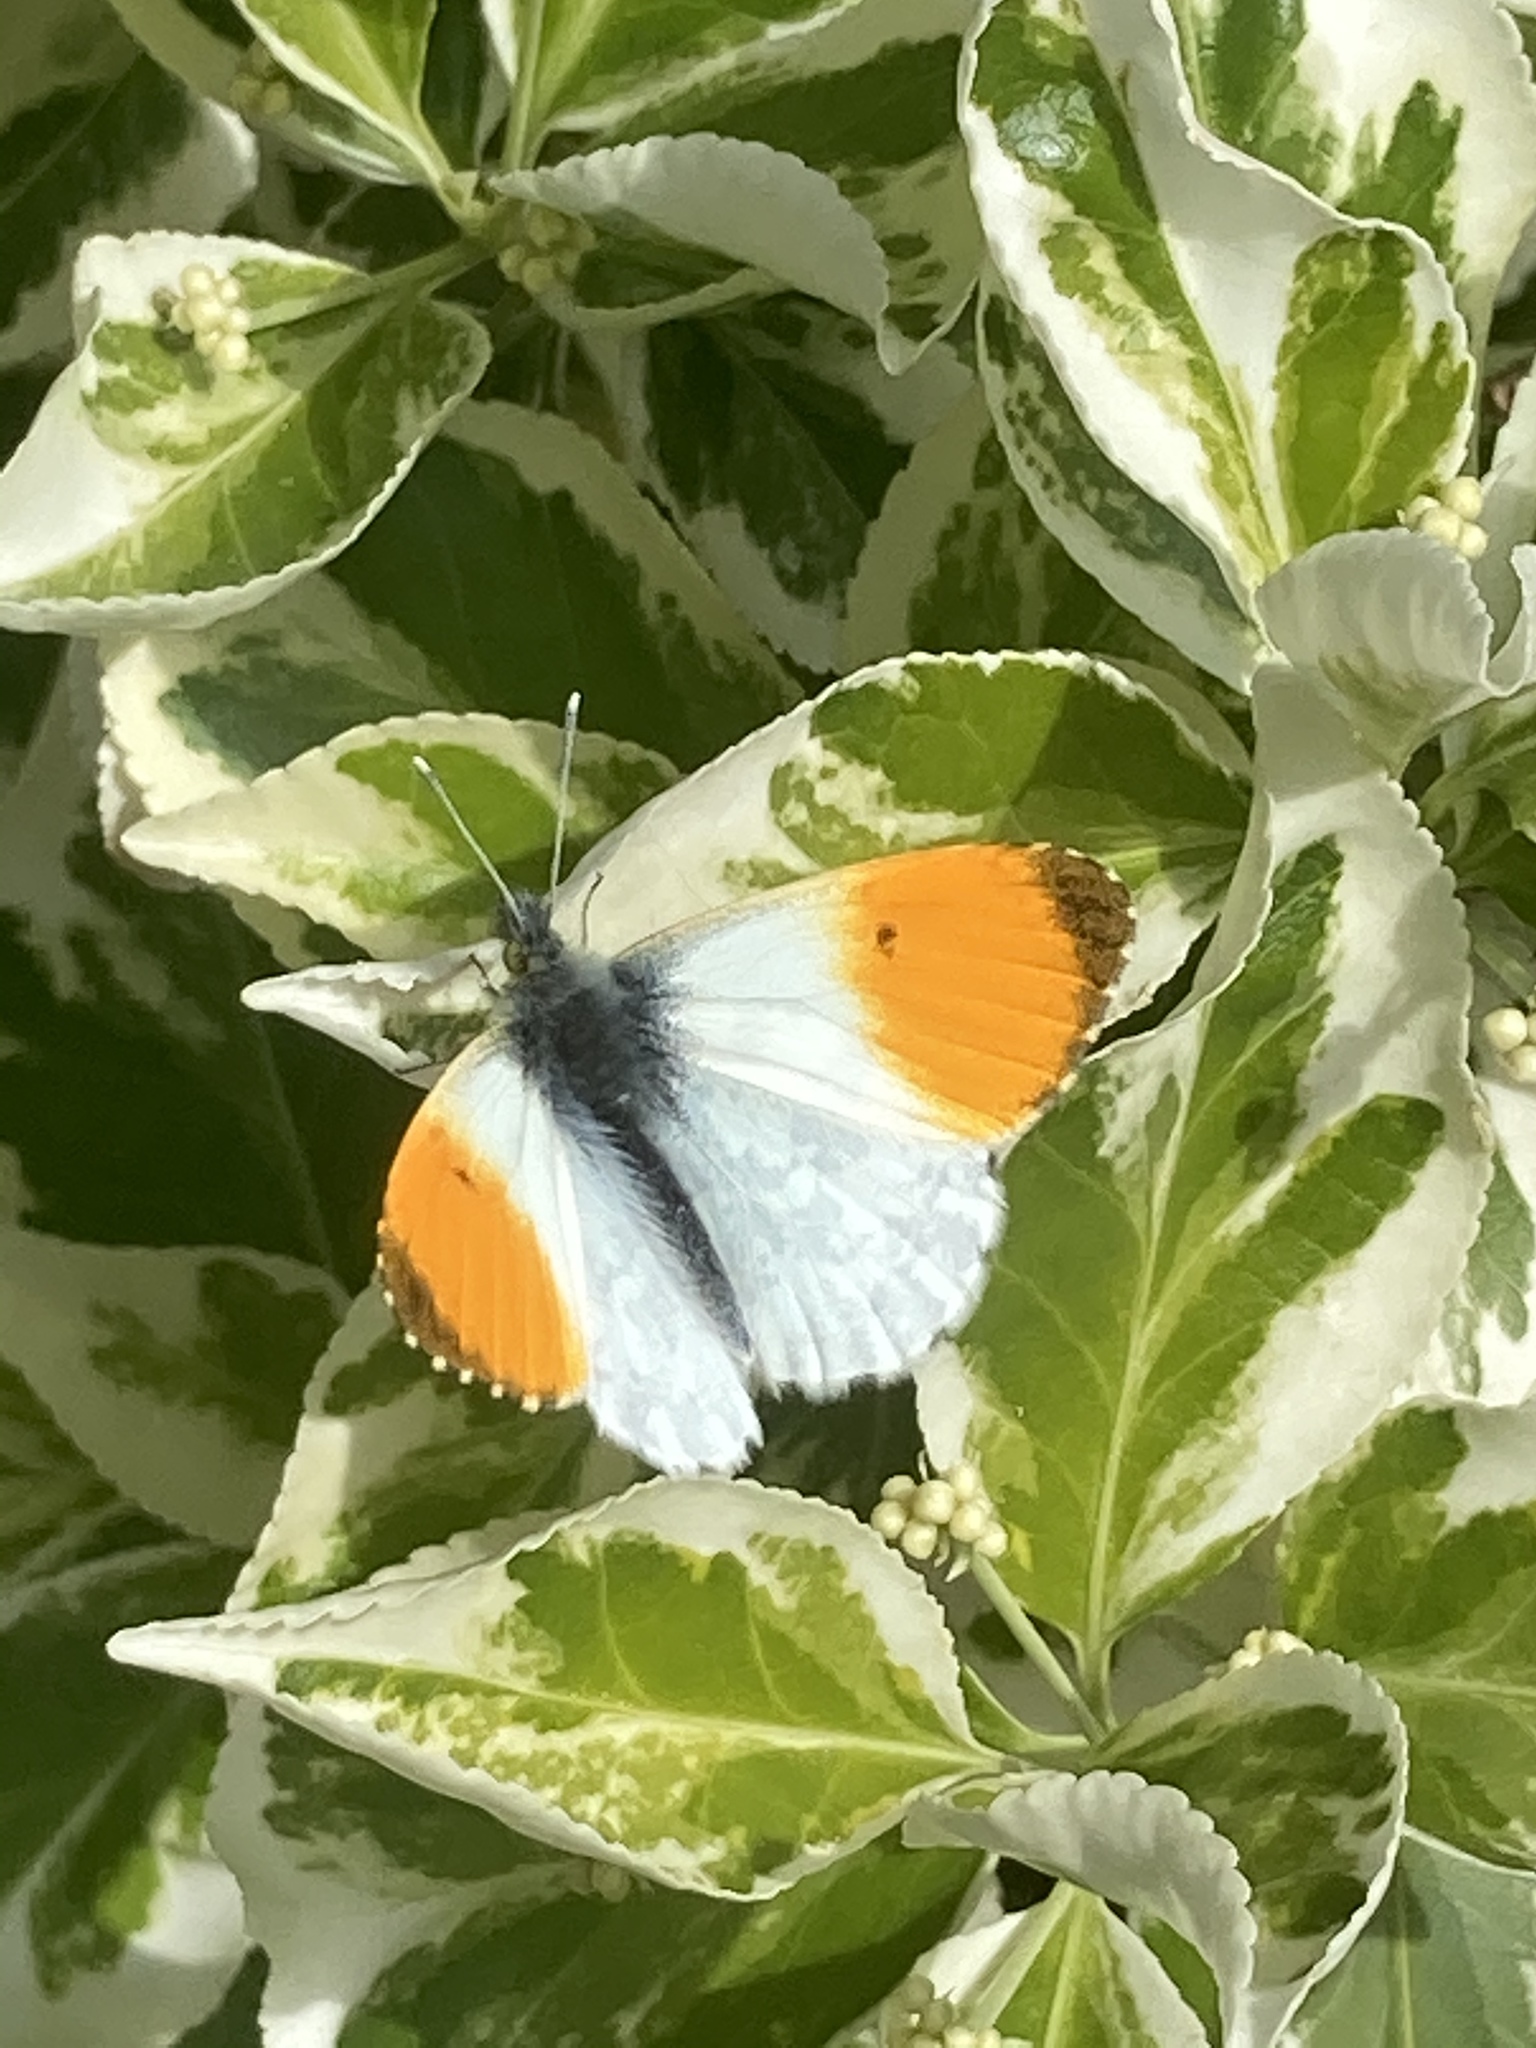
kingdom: Animalia
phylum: Arthropoda
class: Insecta
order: Lepidoptera
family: Pieridae
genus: Anthocharis
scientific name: Anthocharis cardamines
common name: Orange-tip
